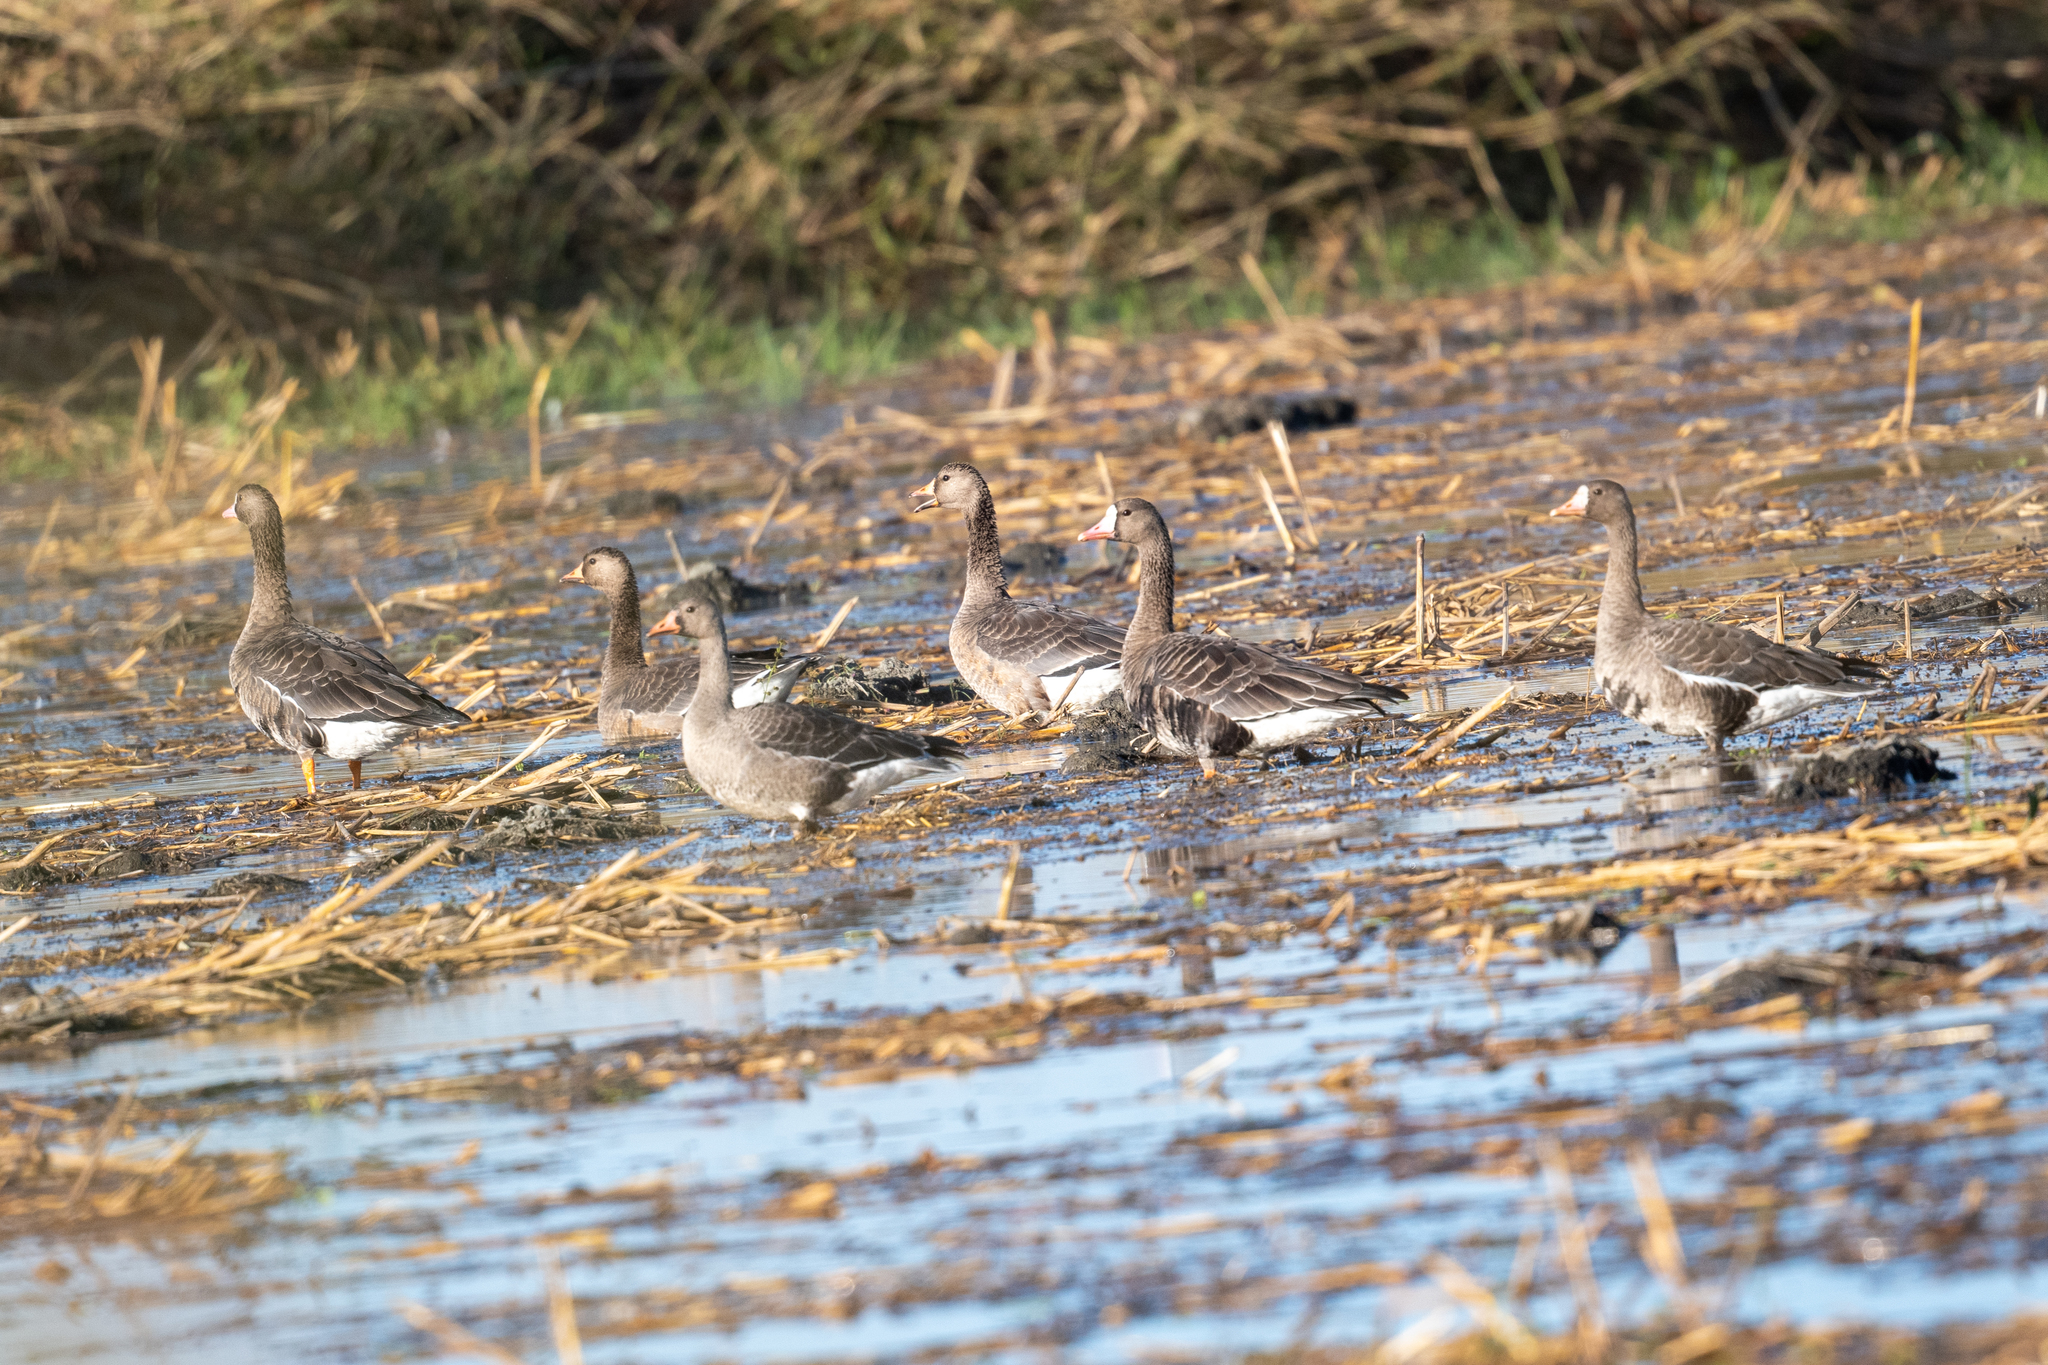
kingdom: Animalia
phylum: Chordata
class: Aves
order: Anseriformes
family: Anatidae
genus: Anser
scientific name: Anser albifrons
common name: Greater white-fronted goose
